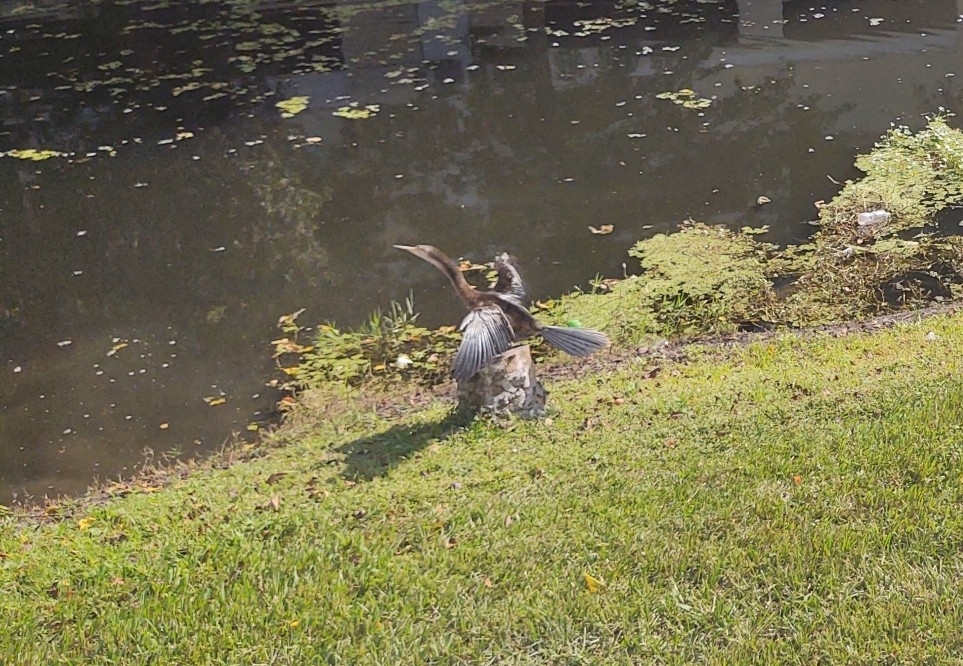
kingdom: Animalia
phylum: Chordata
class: Aves
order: Suliformes
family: Anhingidae
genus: Anhinga
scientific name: Anhinga anhinga
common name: Anhinga
